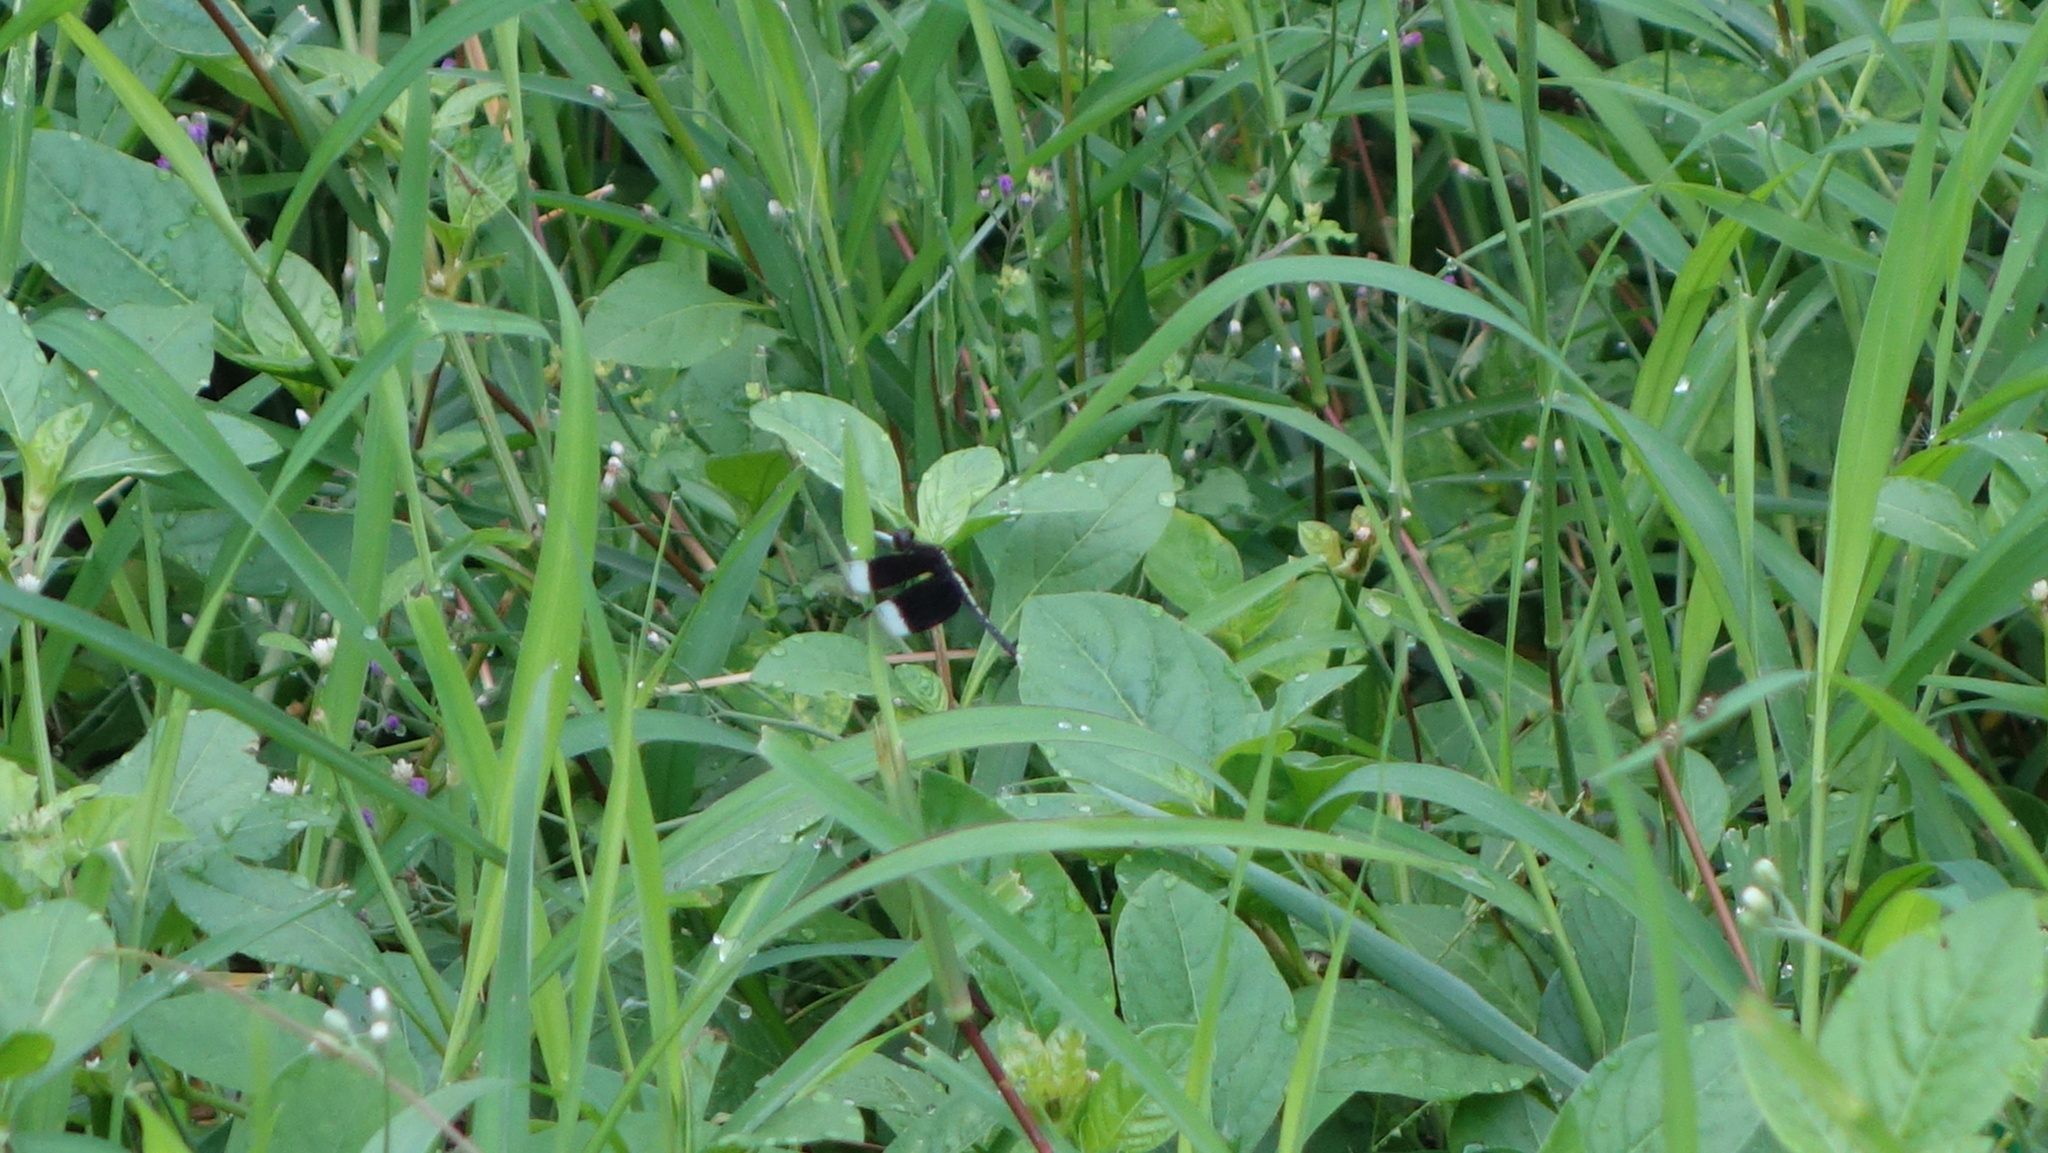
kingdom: Animalia
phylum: Arthropoda
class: Insecta
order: Odonata
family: Libellulidae
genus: Neurothemis
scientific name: Neurothemis tullia
